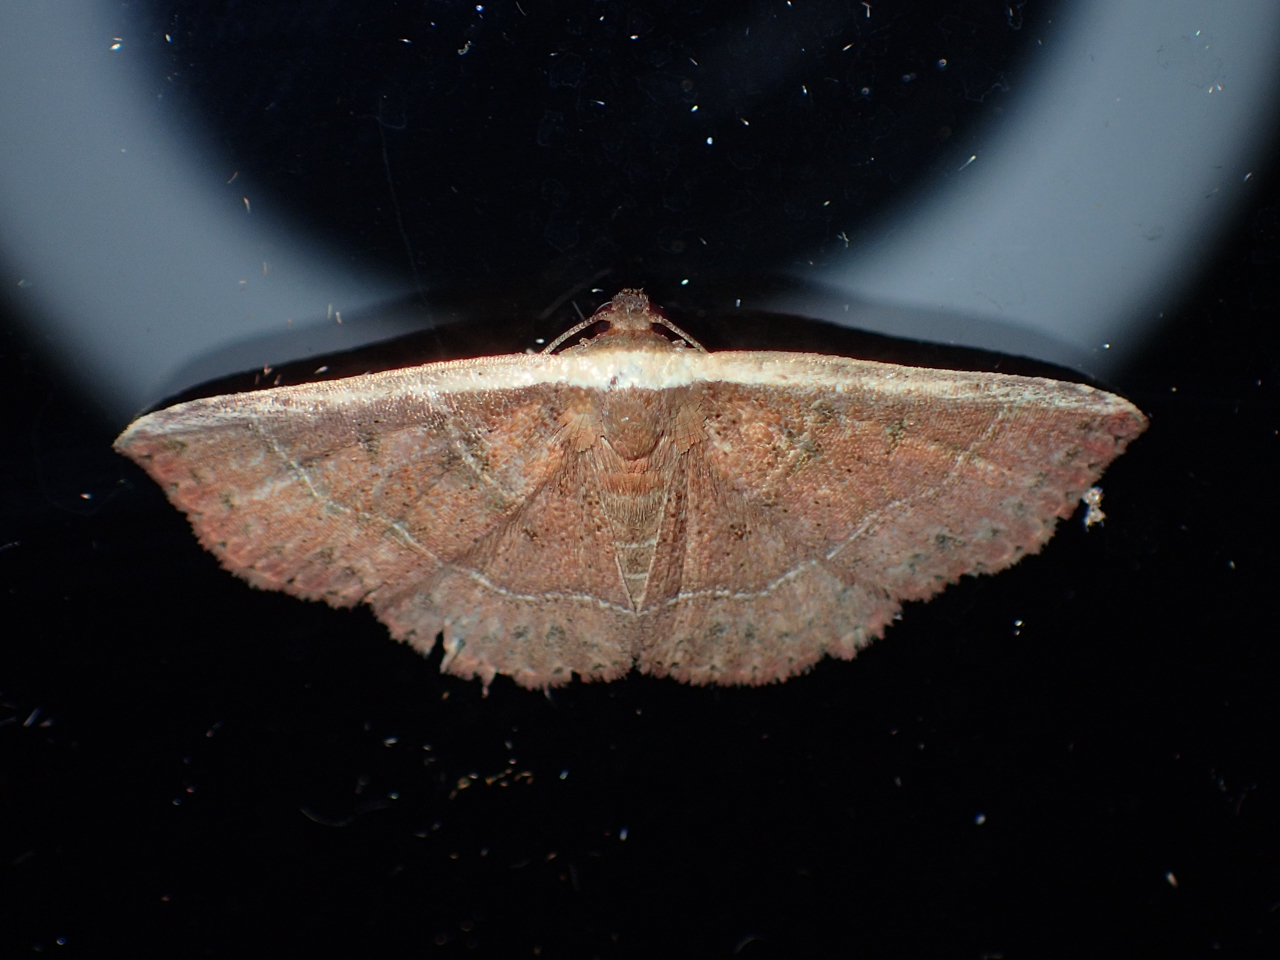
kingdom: Animalia
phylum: Arthropoda
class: Insecta
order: Lepidoptera
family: Noctuidae
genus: Ozarba
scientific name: Ozarba albocostaliata
